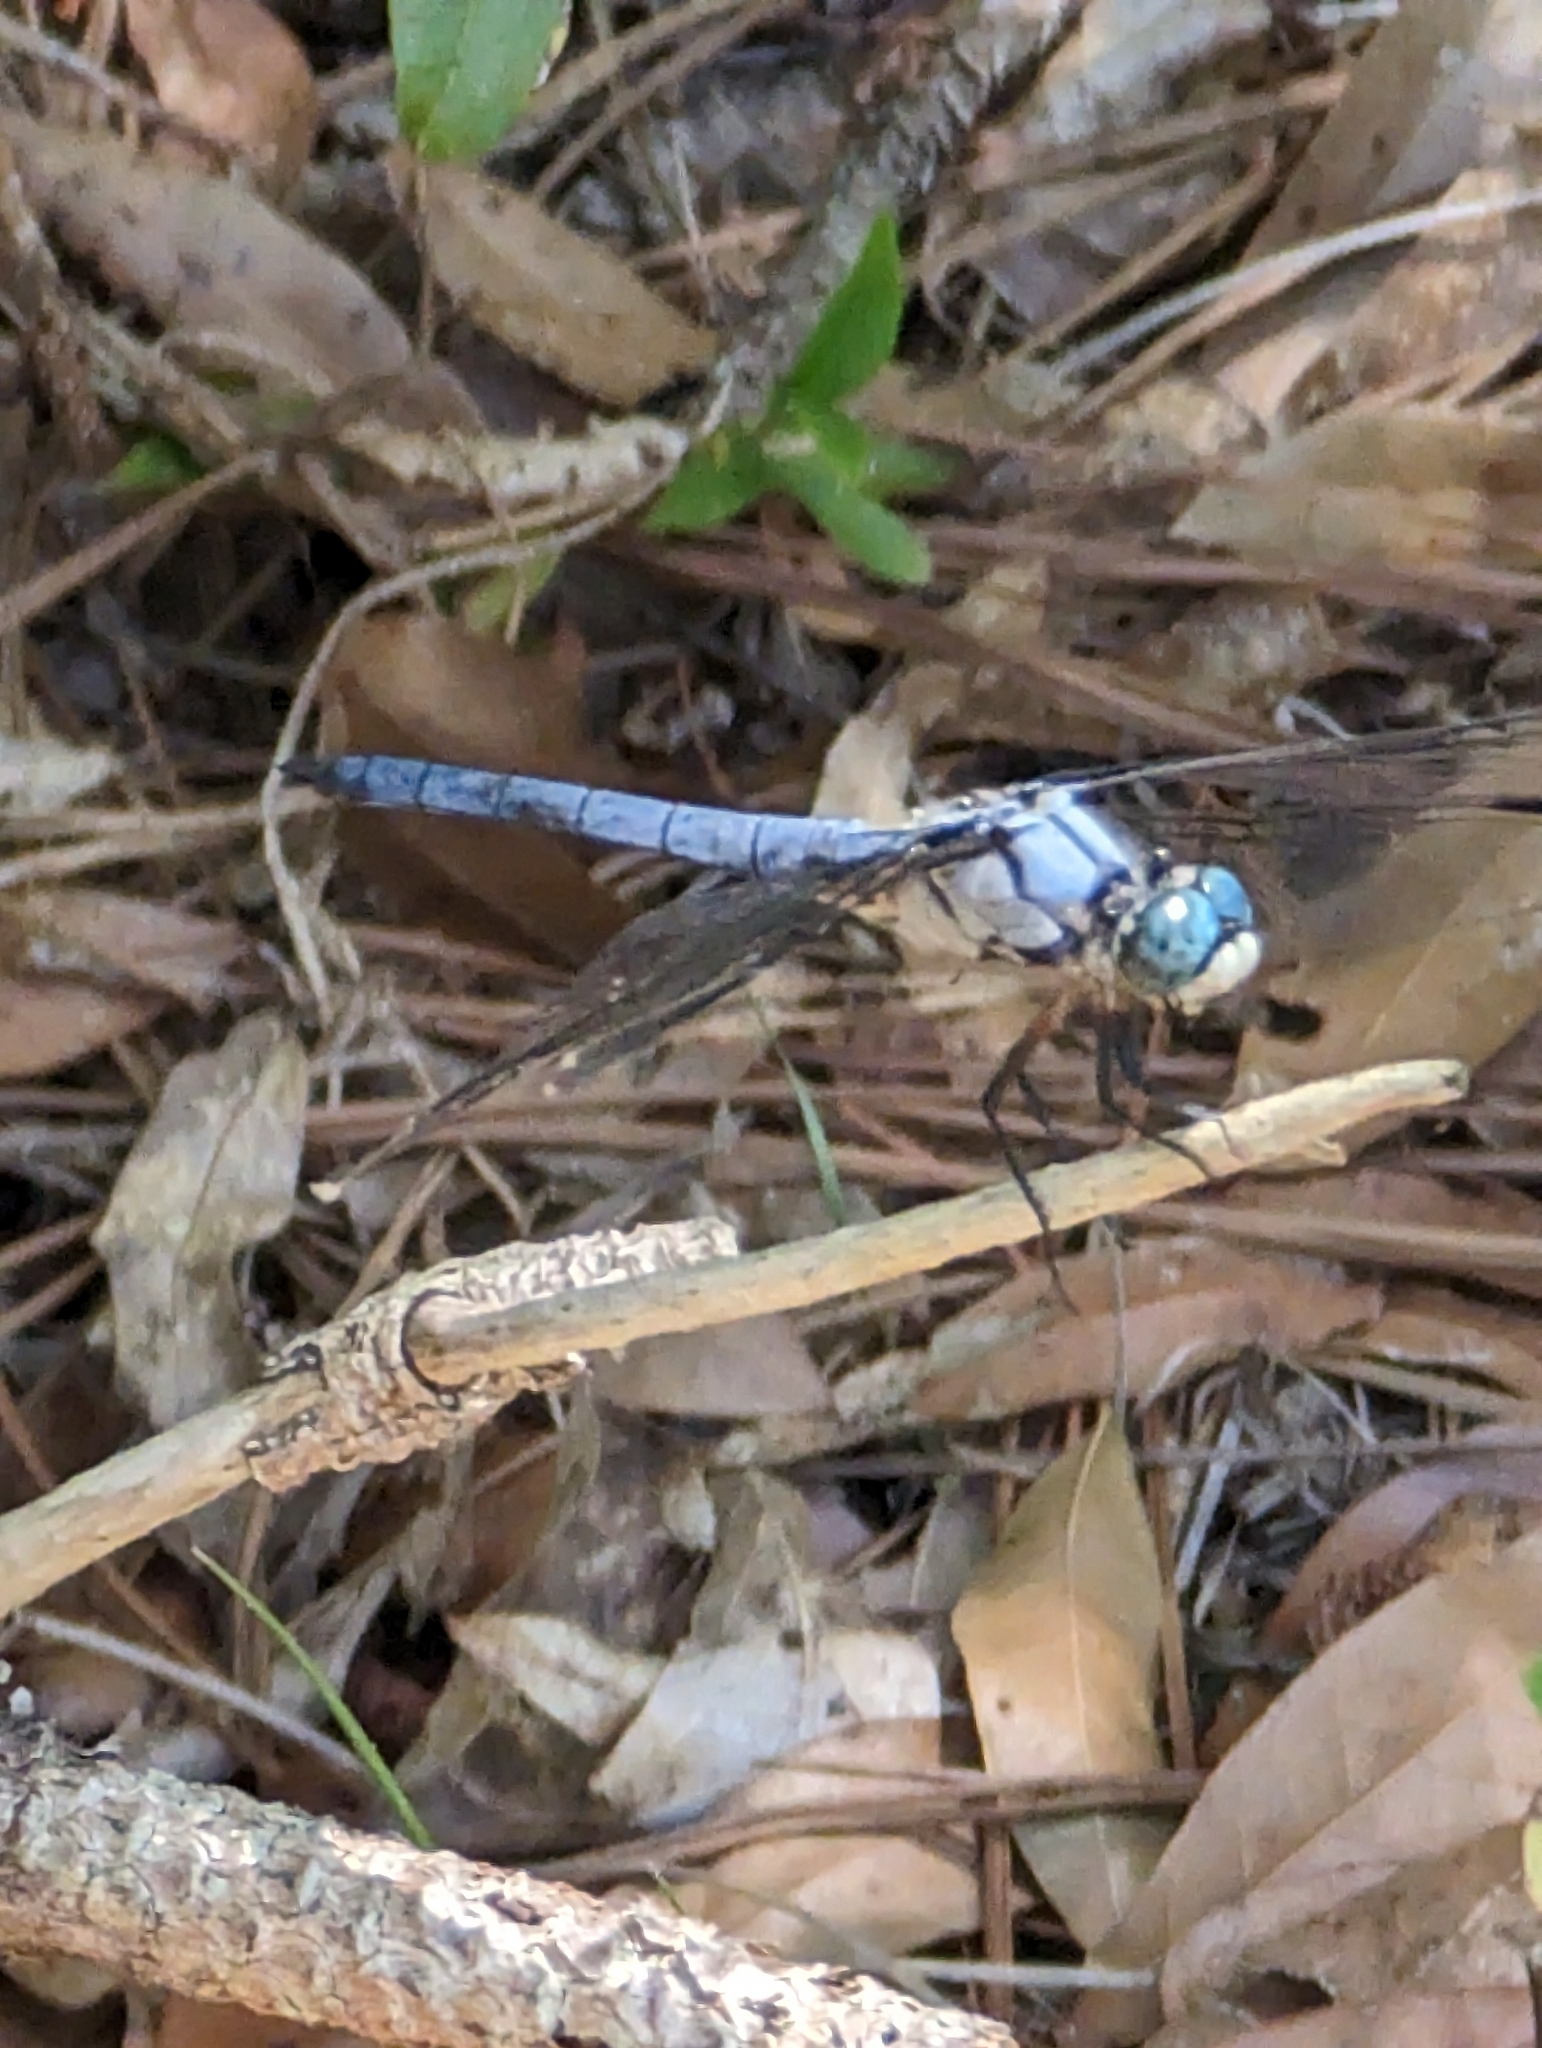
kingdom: Animalia
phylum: Arthropoda
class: Insecta
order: Odonata
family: Libellulidae
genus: Libellula
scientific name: Libellula vibrans
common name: Great blue skimmer
